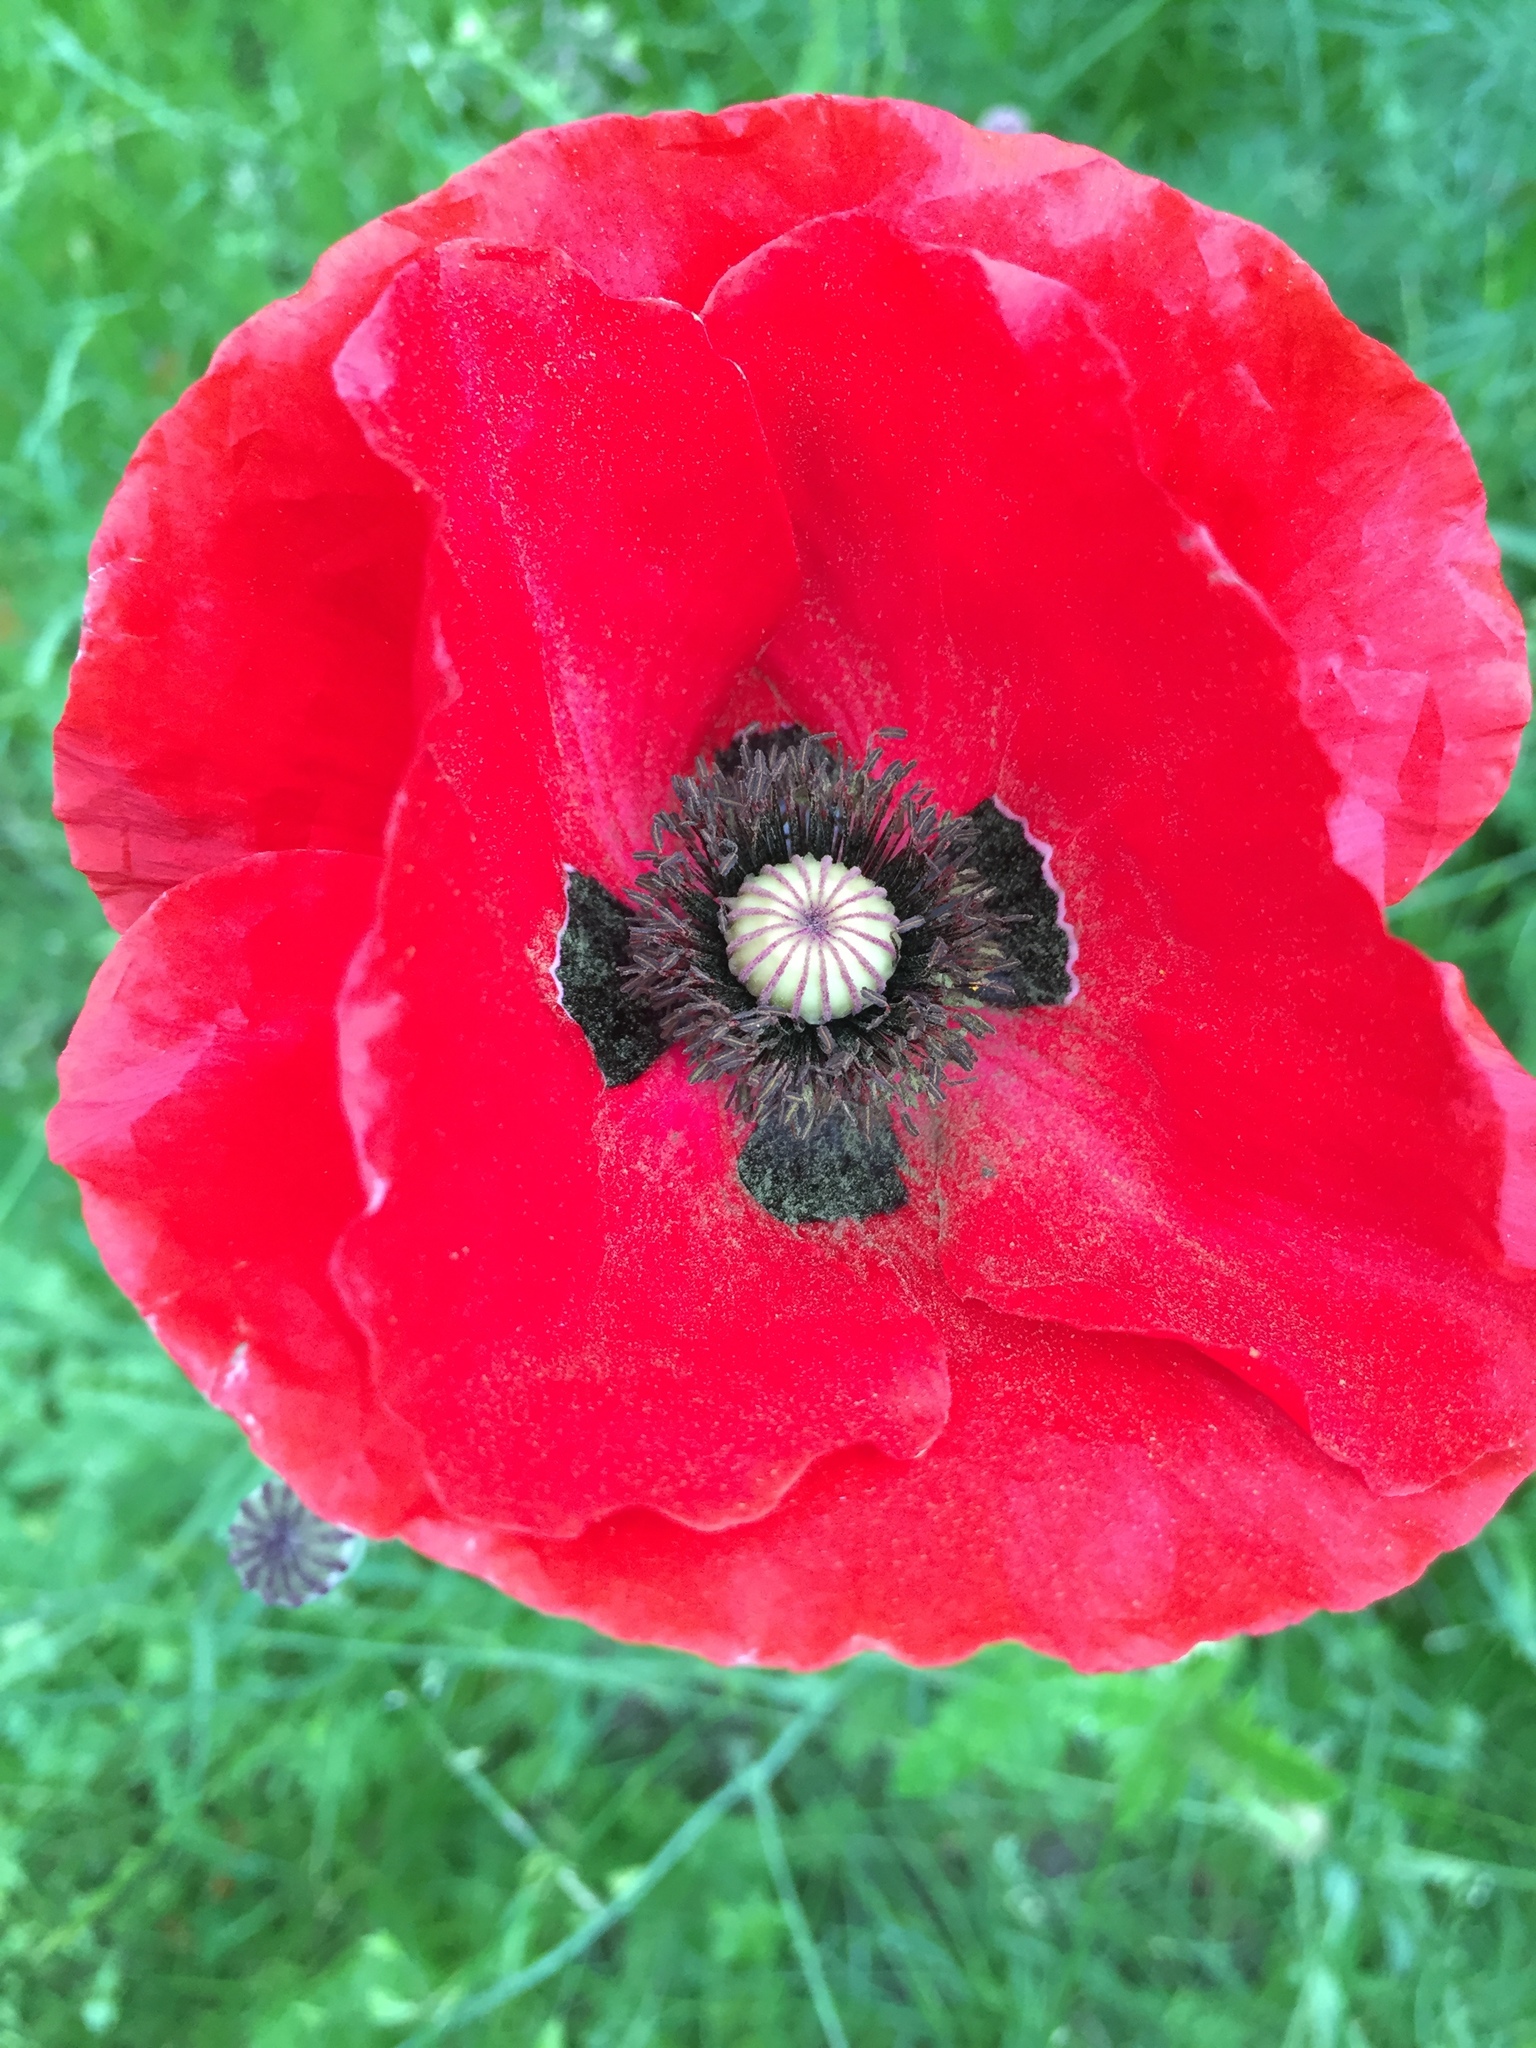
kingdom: Plantae
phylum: Tracheophyta
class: Magnoliopsida
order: Ranunculales
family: Papaveraceae
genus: Papaver
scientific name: Papaver rhoeas
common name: Corn poppy
